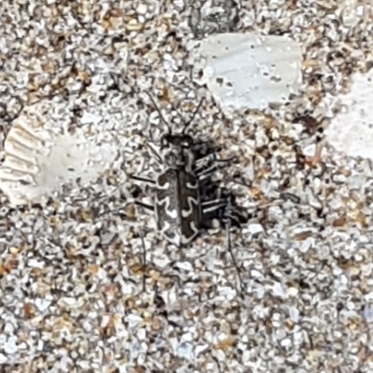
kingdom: Animalia
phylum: Arthropoda
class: Insecta
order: Coleoptera
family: Carabidae
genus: Cylindera
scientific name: Cylindera trisignata
